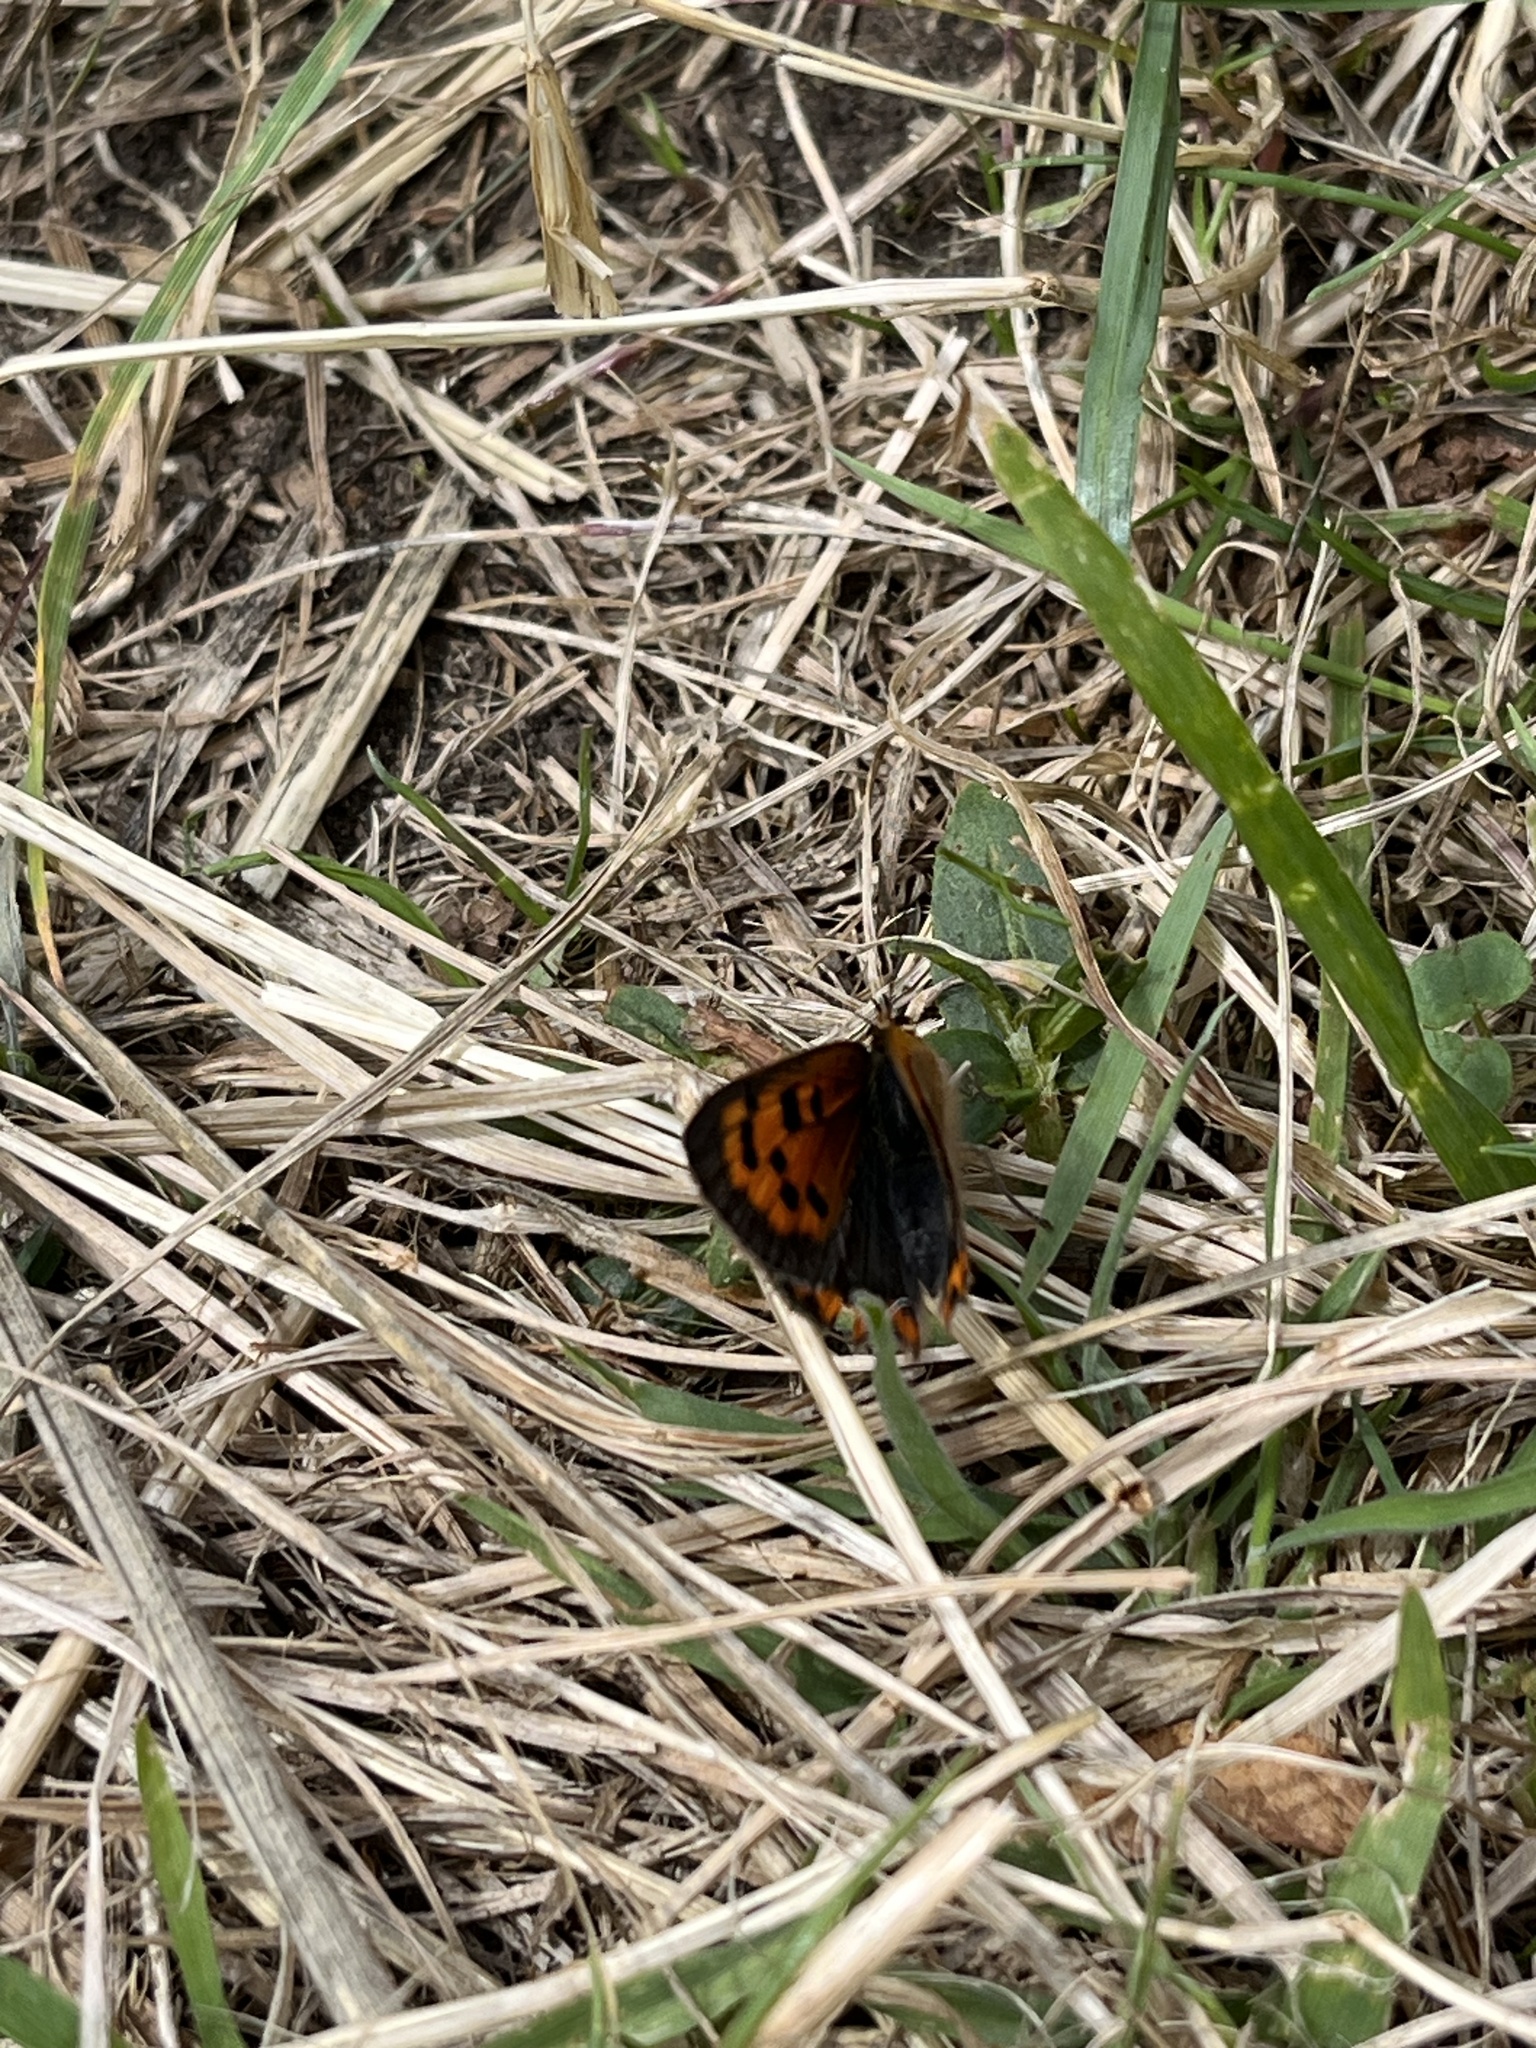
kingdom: Animalia
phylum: Arthropoda
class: Insecta
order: Lepidoptera
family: Lycaenidae
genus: Lycaena
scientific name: Lycaena phlaeas
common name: Small copper
